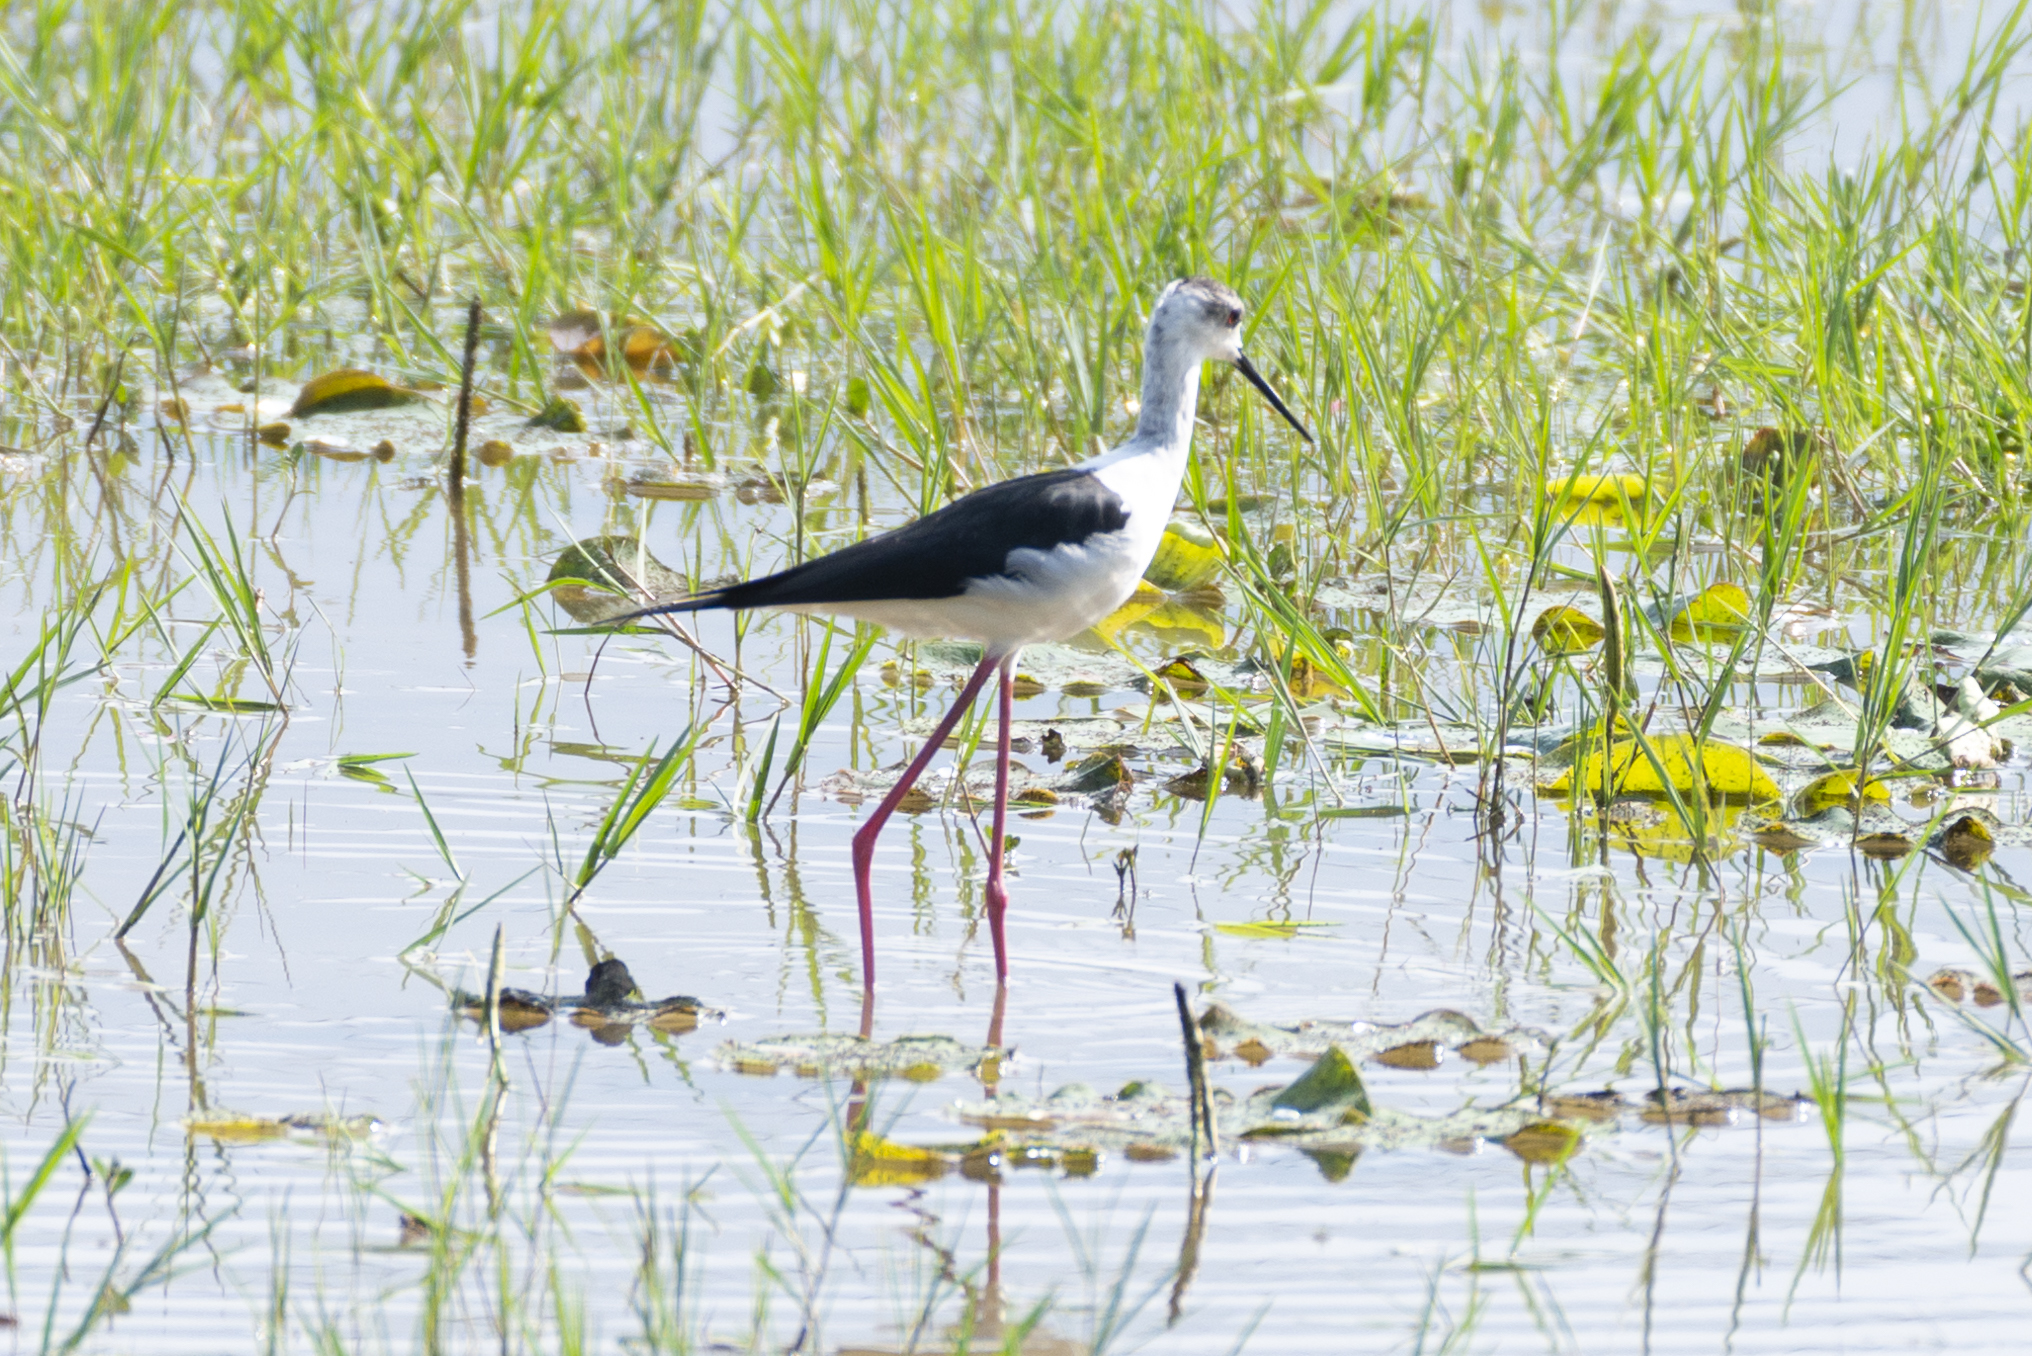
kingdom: Animalia
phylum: Chordata
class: Aves
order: Charadriiformes
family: Recurvirostridae
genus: Himantopus
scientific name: Himantopus himantopus
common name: Black-winged stilt
